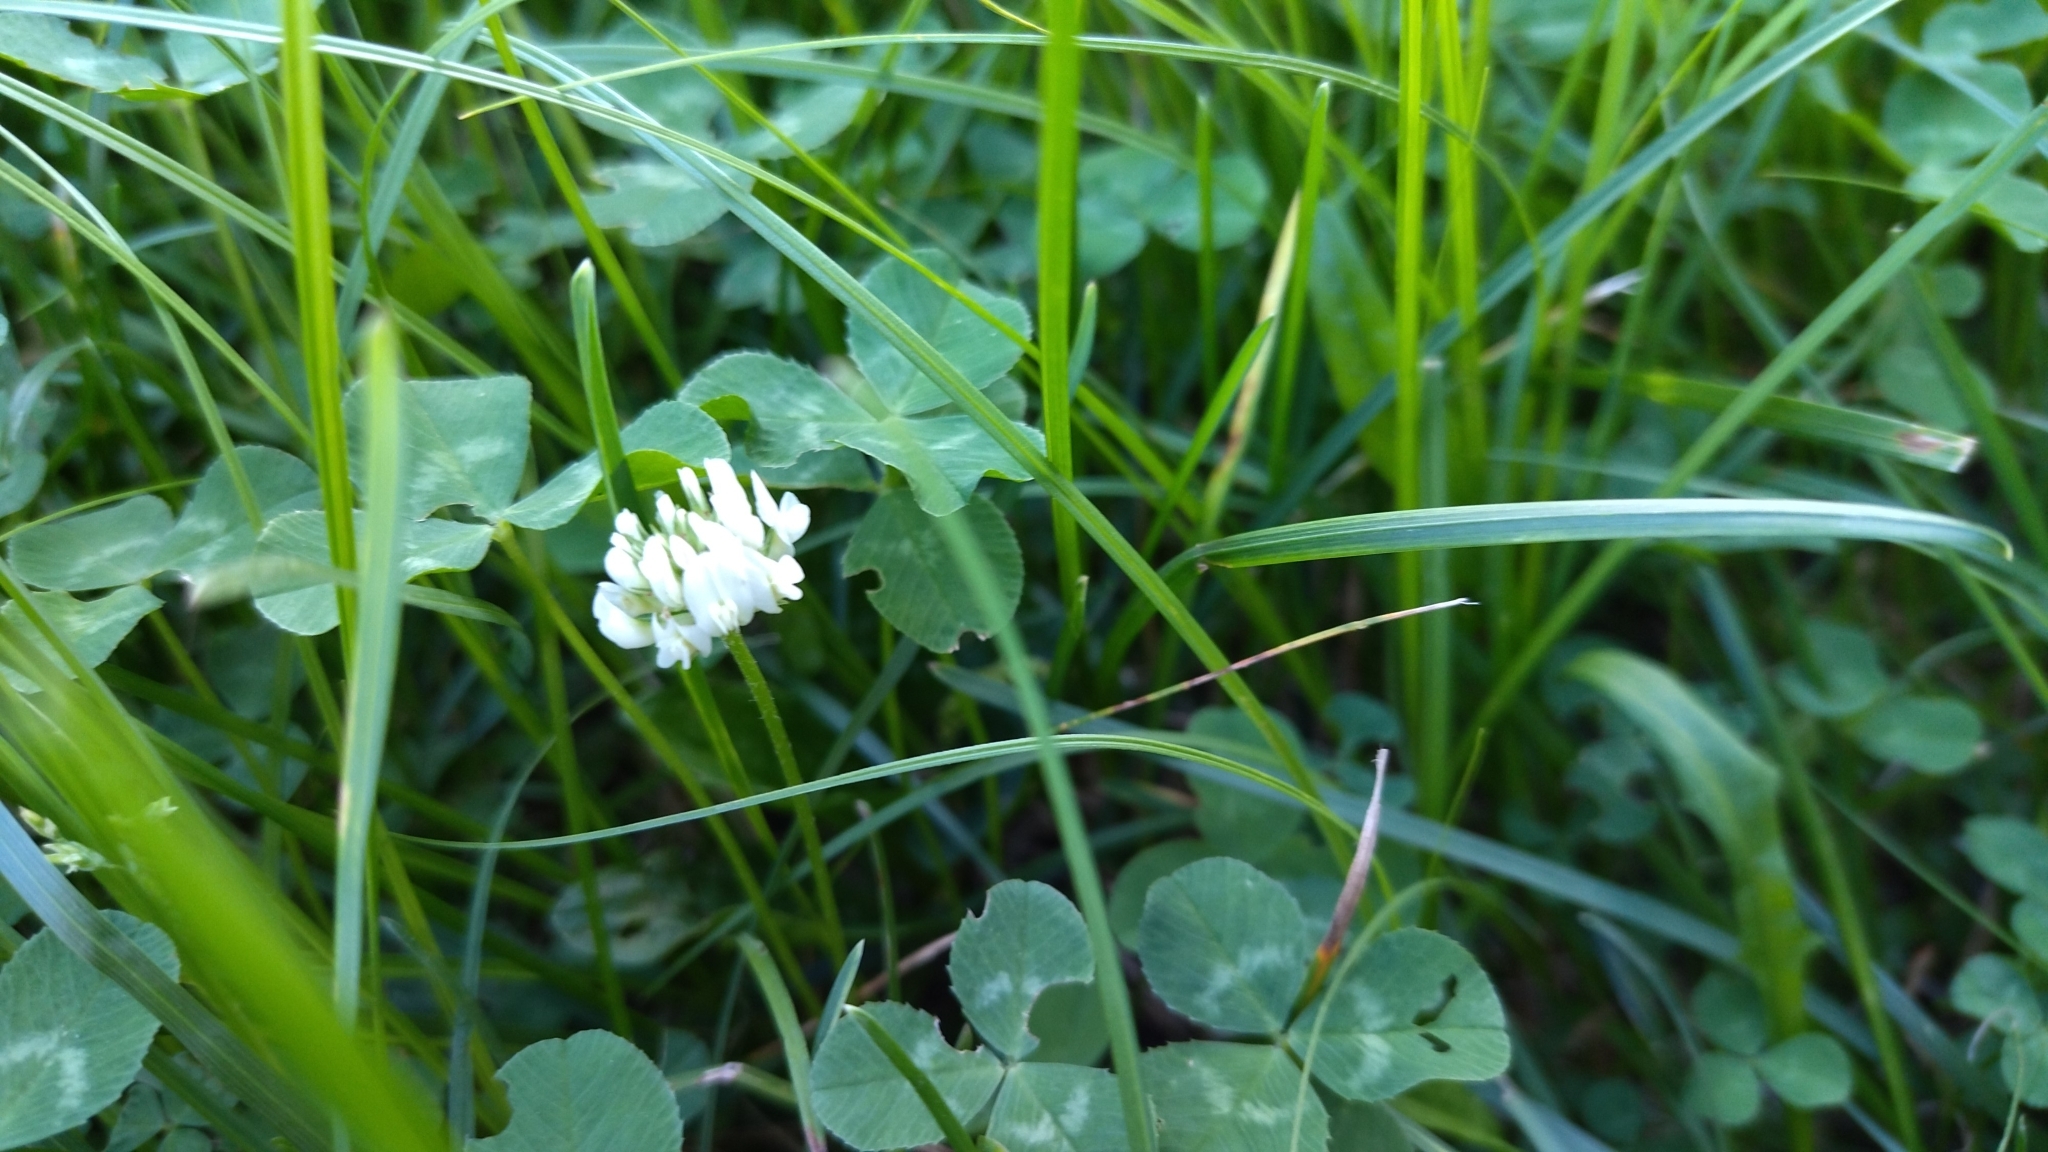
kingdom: Plantae
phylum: Tracheophyta
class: Magnoliopsida
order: Fabales
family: Fabaceae
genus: Trifolium
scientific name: Trifolium repens
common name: White clover
